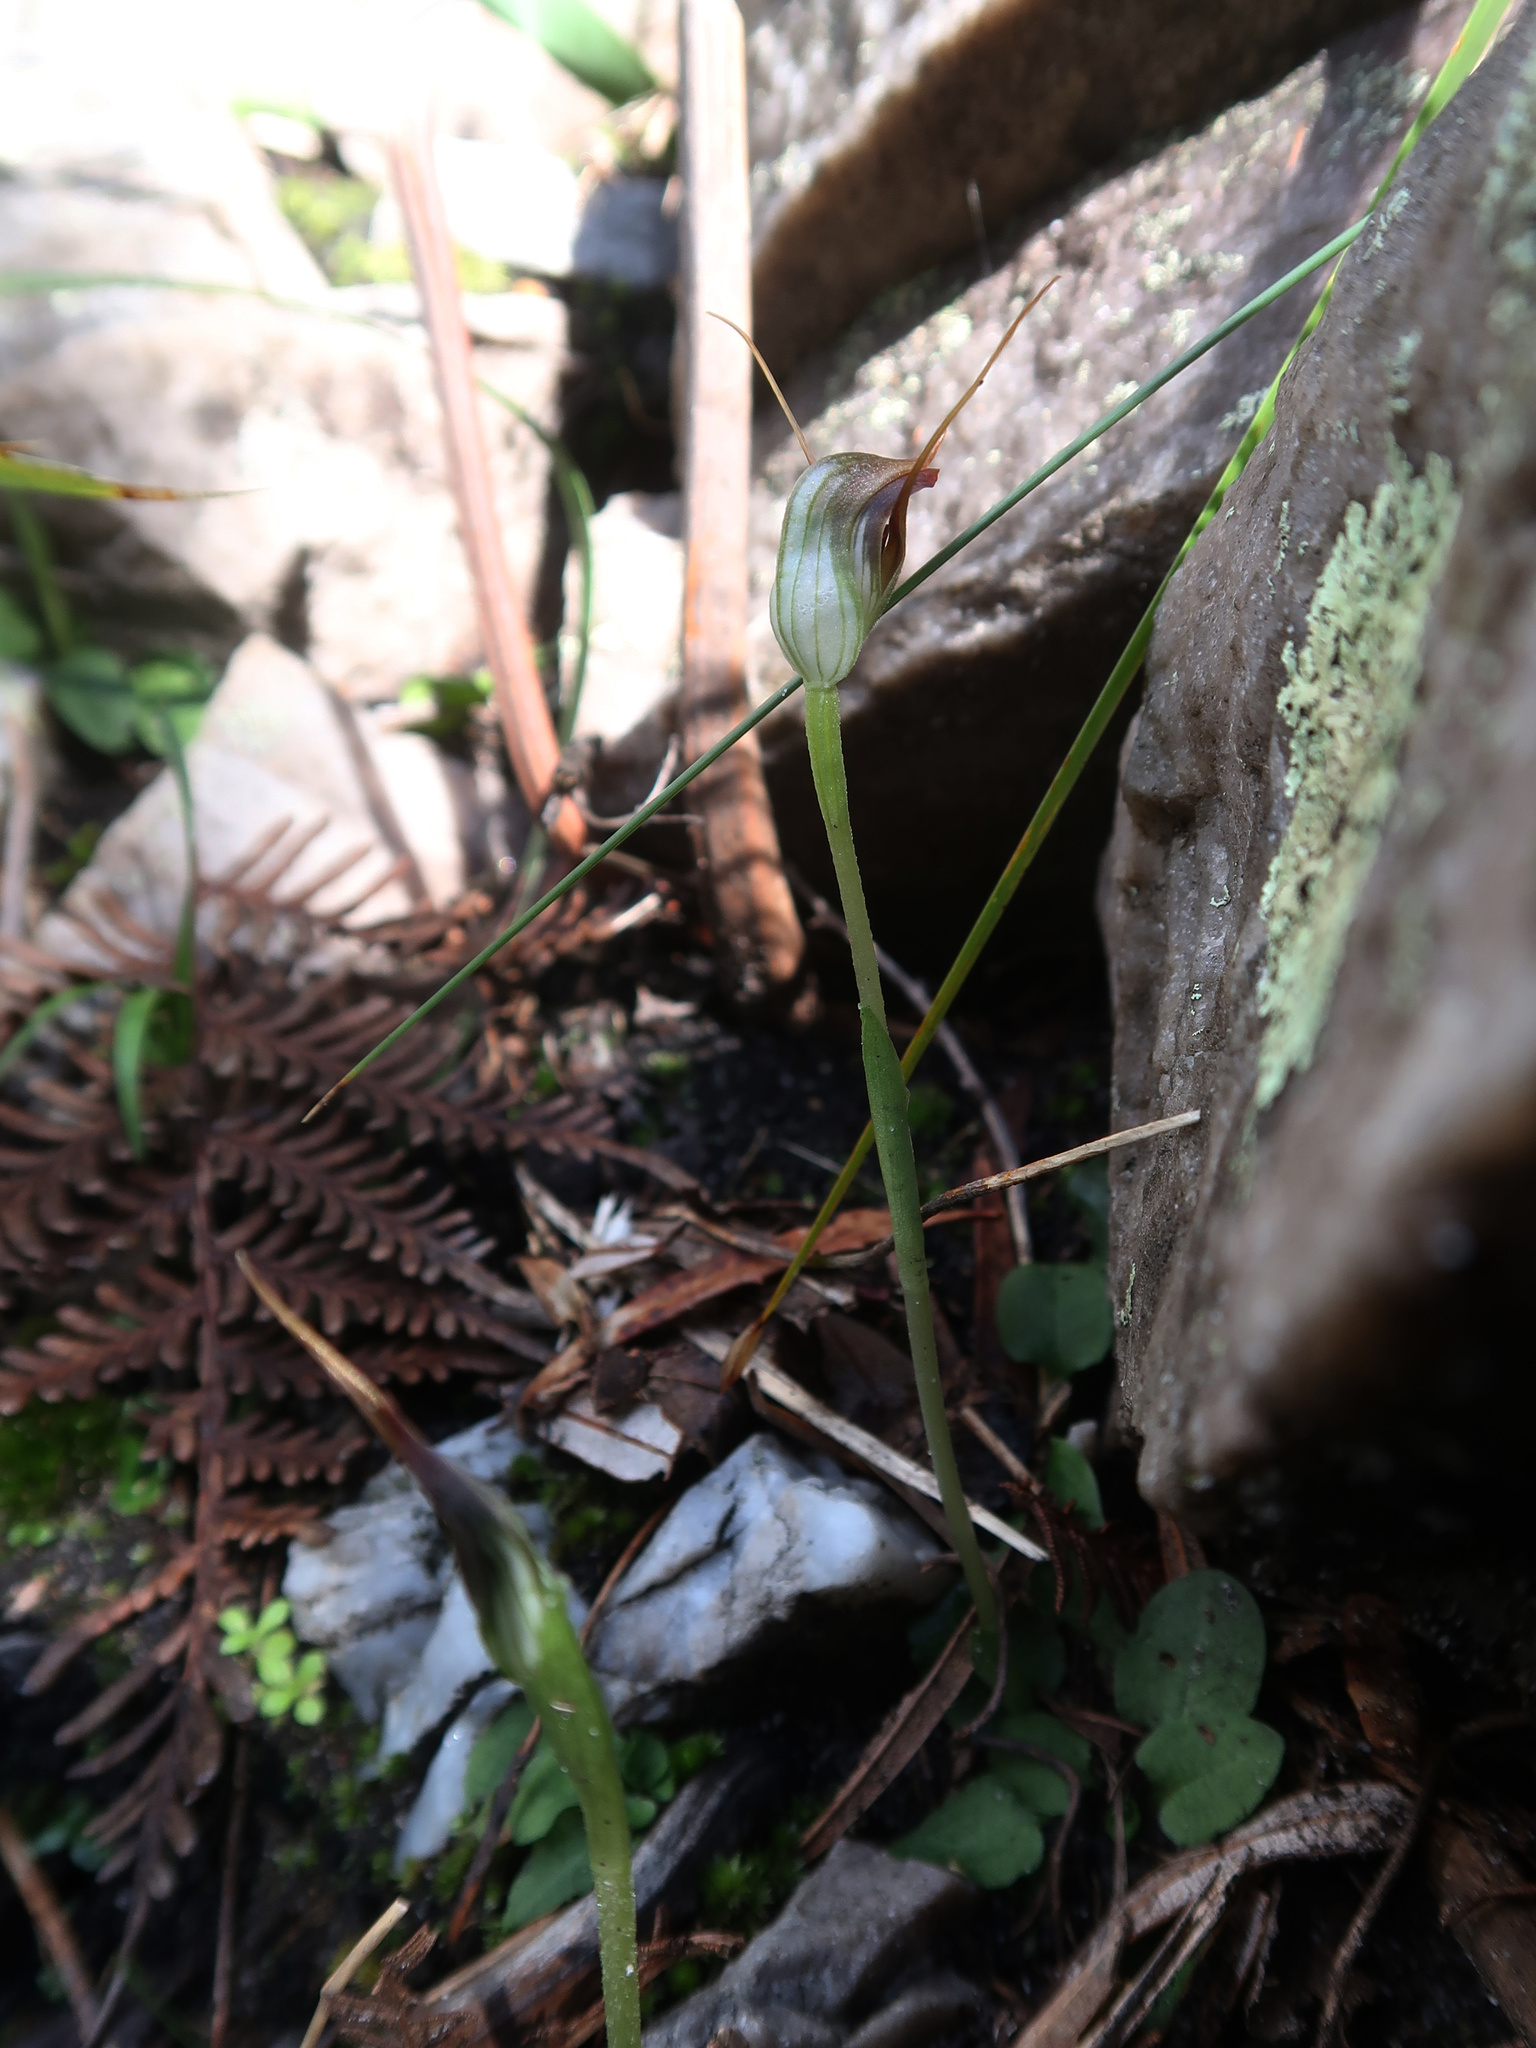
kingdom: Plantae
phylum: Tracheophyta
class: Liliopsida
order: Asparagales
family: Orchidaceae
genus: Pterostylis
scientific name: Pterostylis pedunculata
